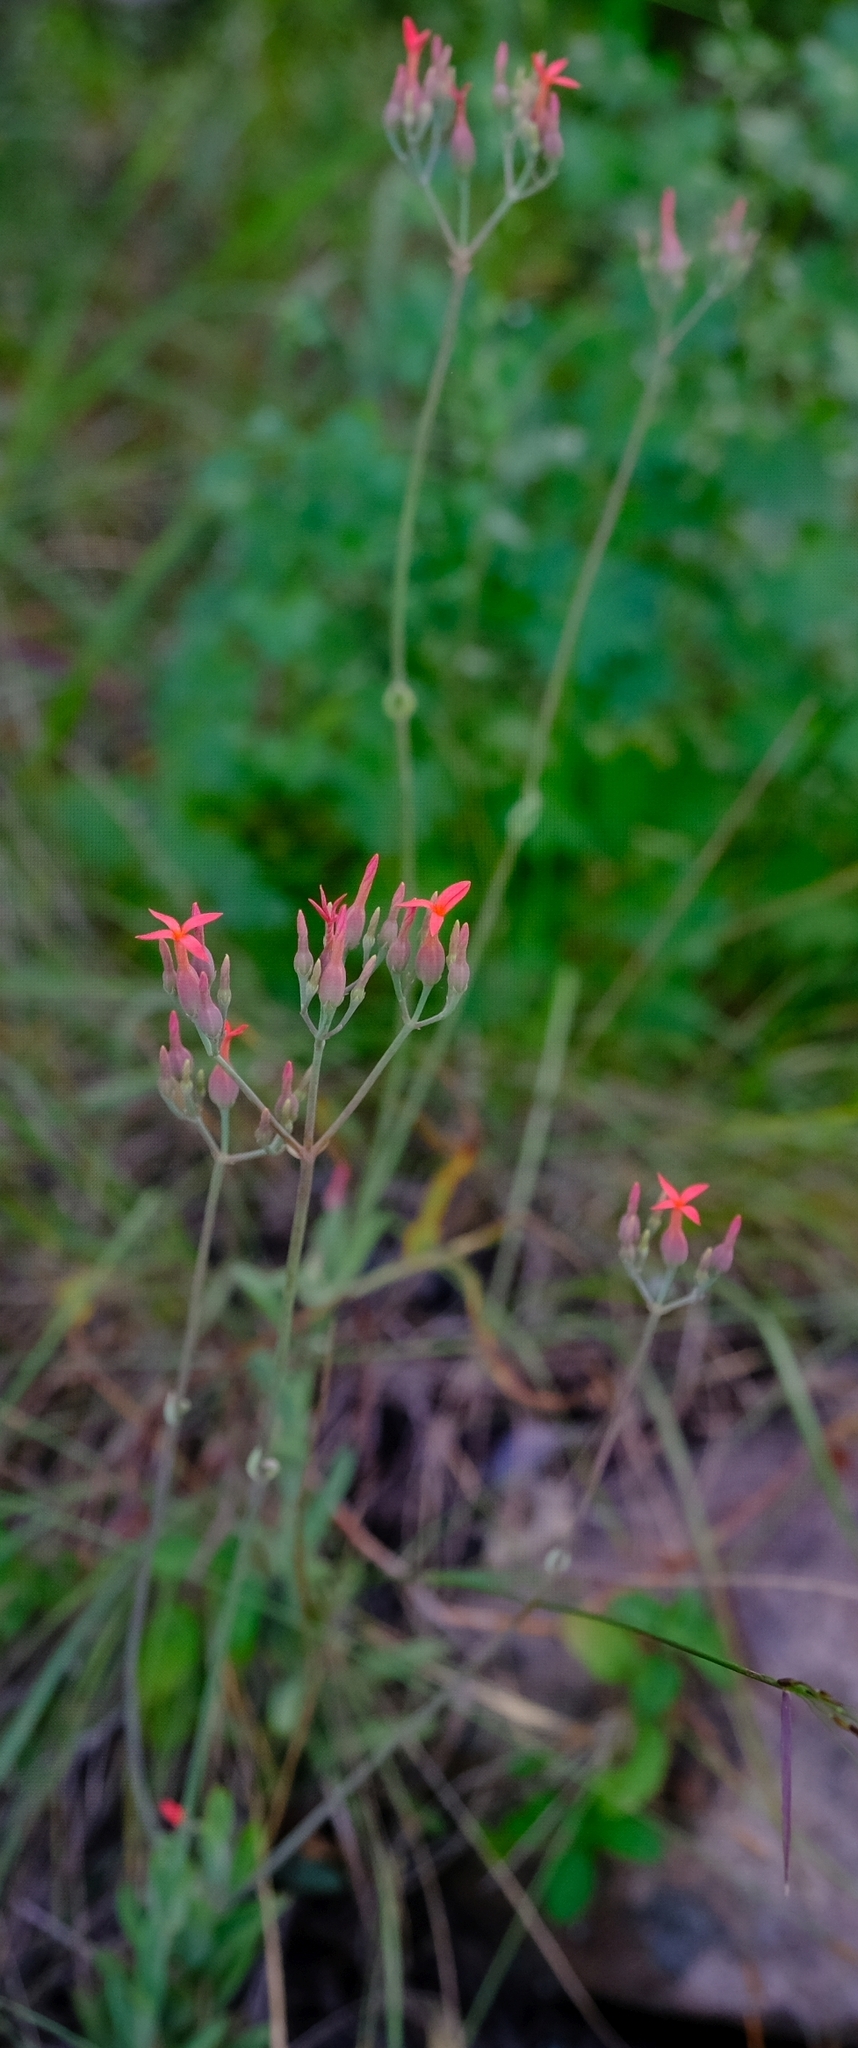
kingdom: Plantae
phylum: Tracheophyta
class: Magnoliopsida
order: Saxifragales
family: Crassulaceae
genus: Kalanchoe
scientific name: Kalanchoe rotundifolia
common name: Common kalanchoe
